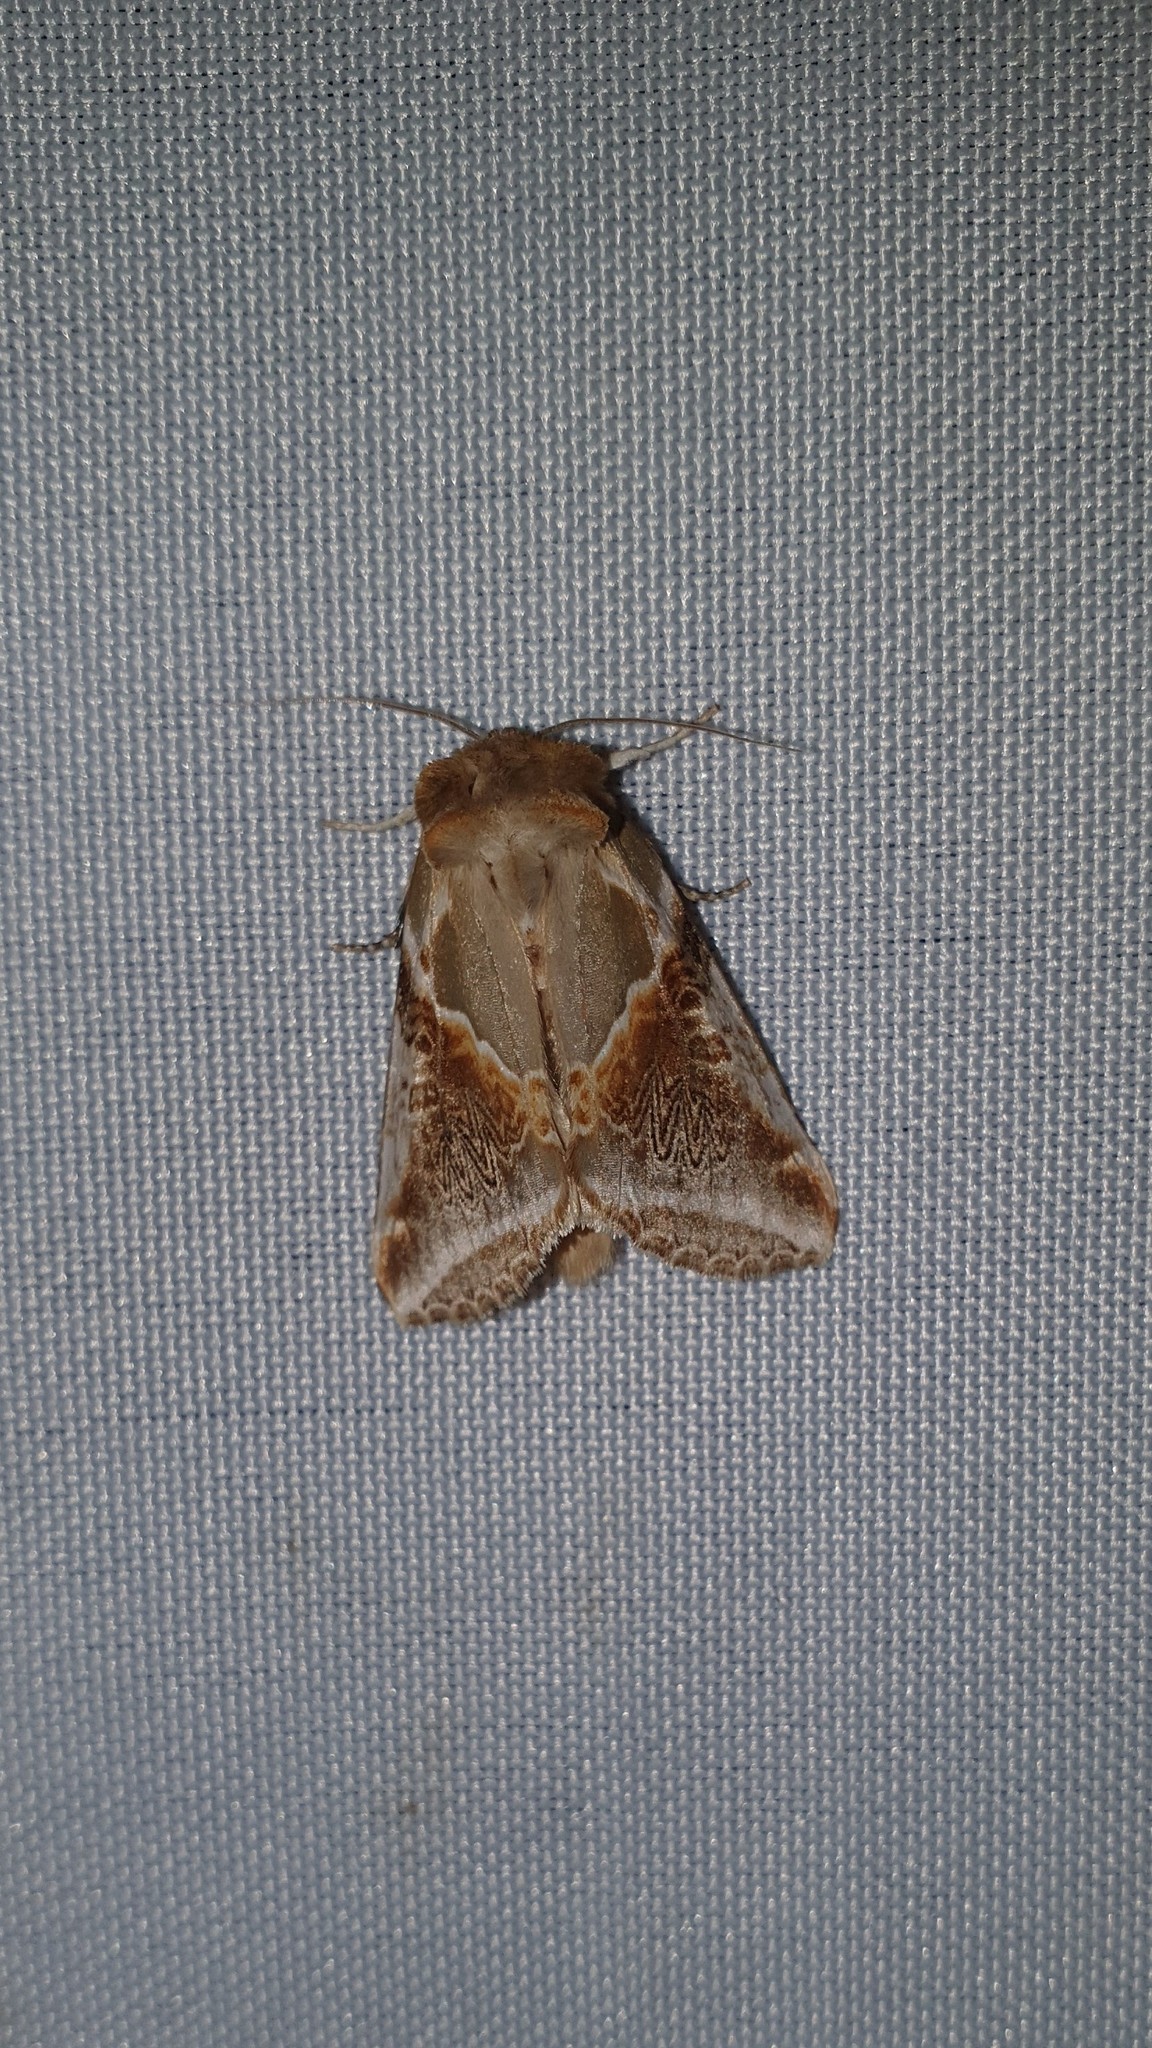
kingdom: Animalia
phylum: Arthropoda
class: Insecta
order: Lepidoptera
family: Drepanidae
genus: Habrosyne
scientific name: Habrosyne pyritoides
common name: Buff arches
